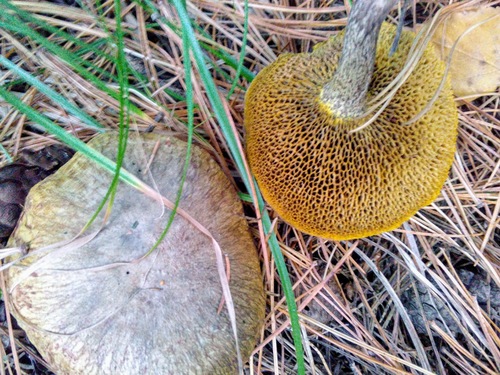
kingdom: Fungi
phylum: Basidiomycota
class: Agaricomycetes
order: Boletales
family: Suillaceae
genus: Suillus
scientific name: Suillus americanus
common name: Chicken fat mushroom
